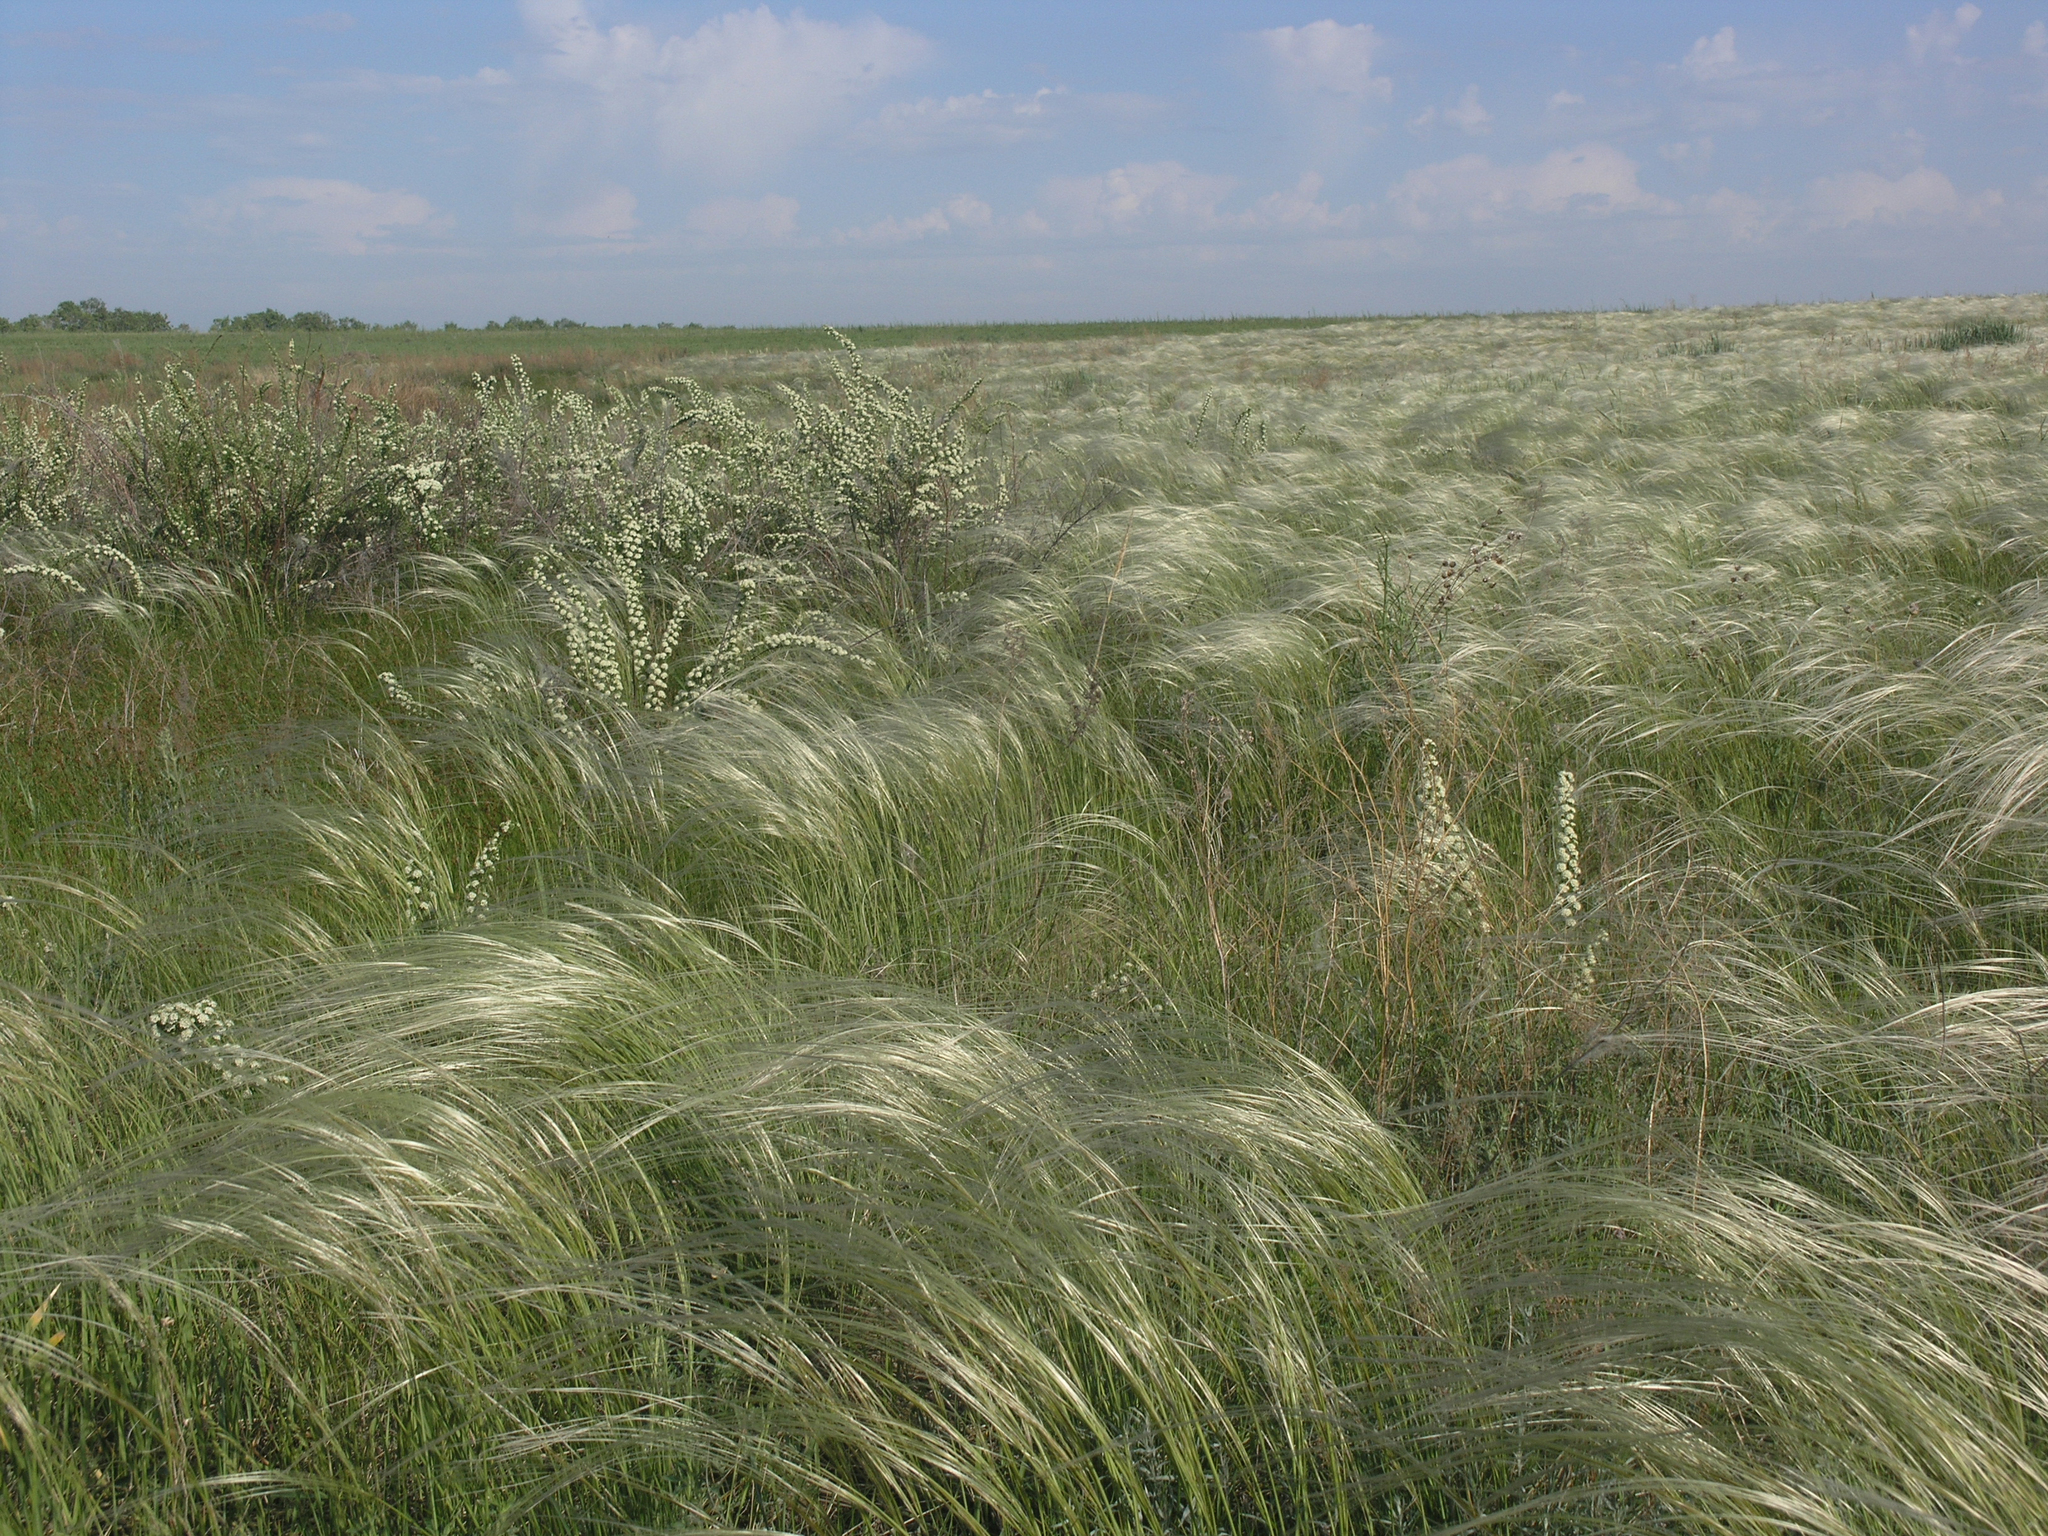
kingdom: Plantae
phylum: Tracheophyta
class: Liliopsida
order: Poales
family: Poaceae
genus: Stipa
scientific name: Stipa pennata
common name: European feather grass
